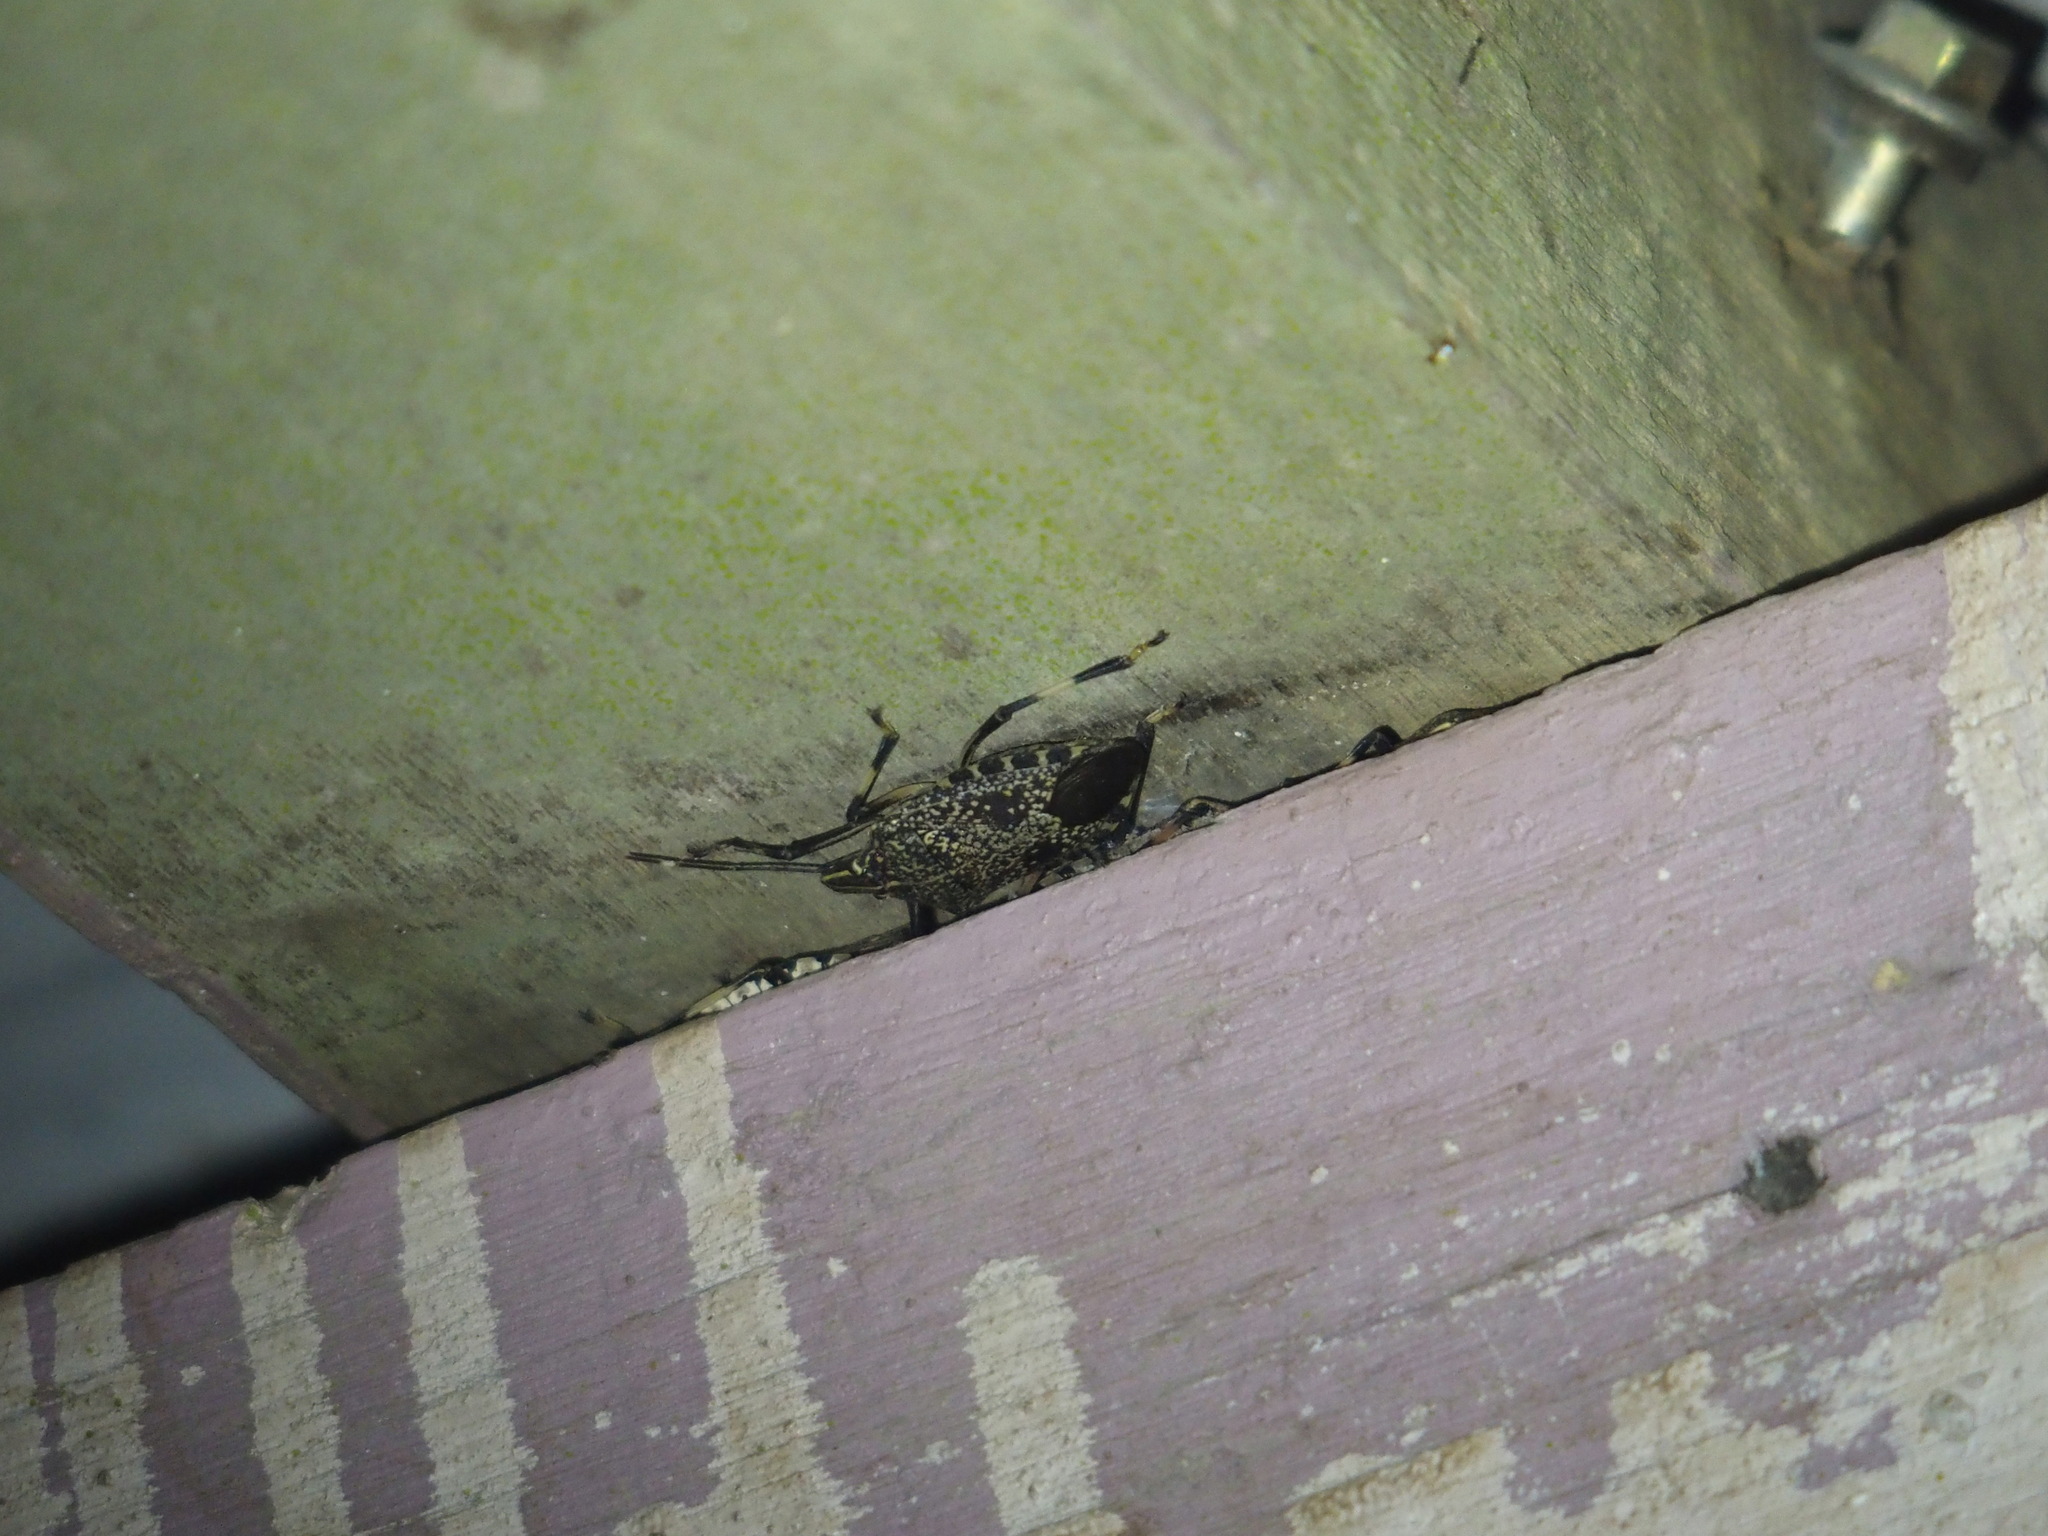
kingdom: Animalia
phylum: Arthropoda
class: Insecta
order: Hemiptera
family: Pentatomidae
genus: Erthesina
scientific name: Erthesina fullo
